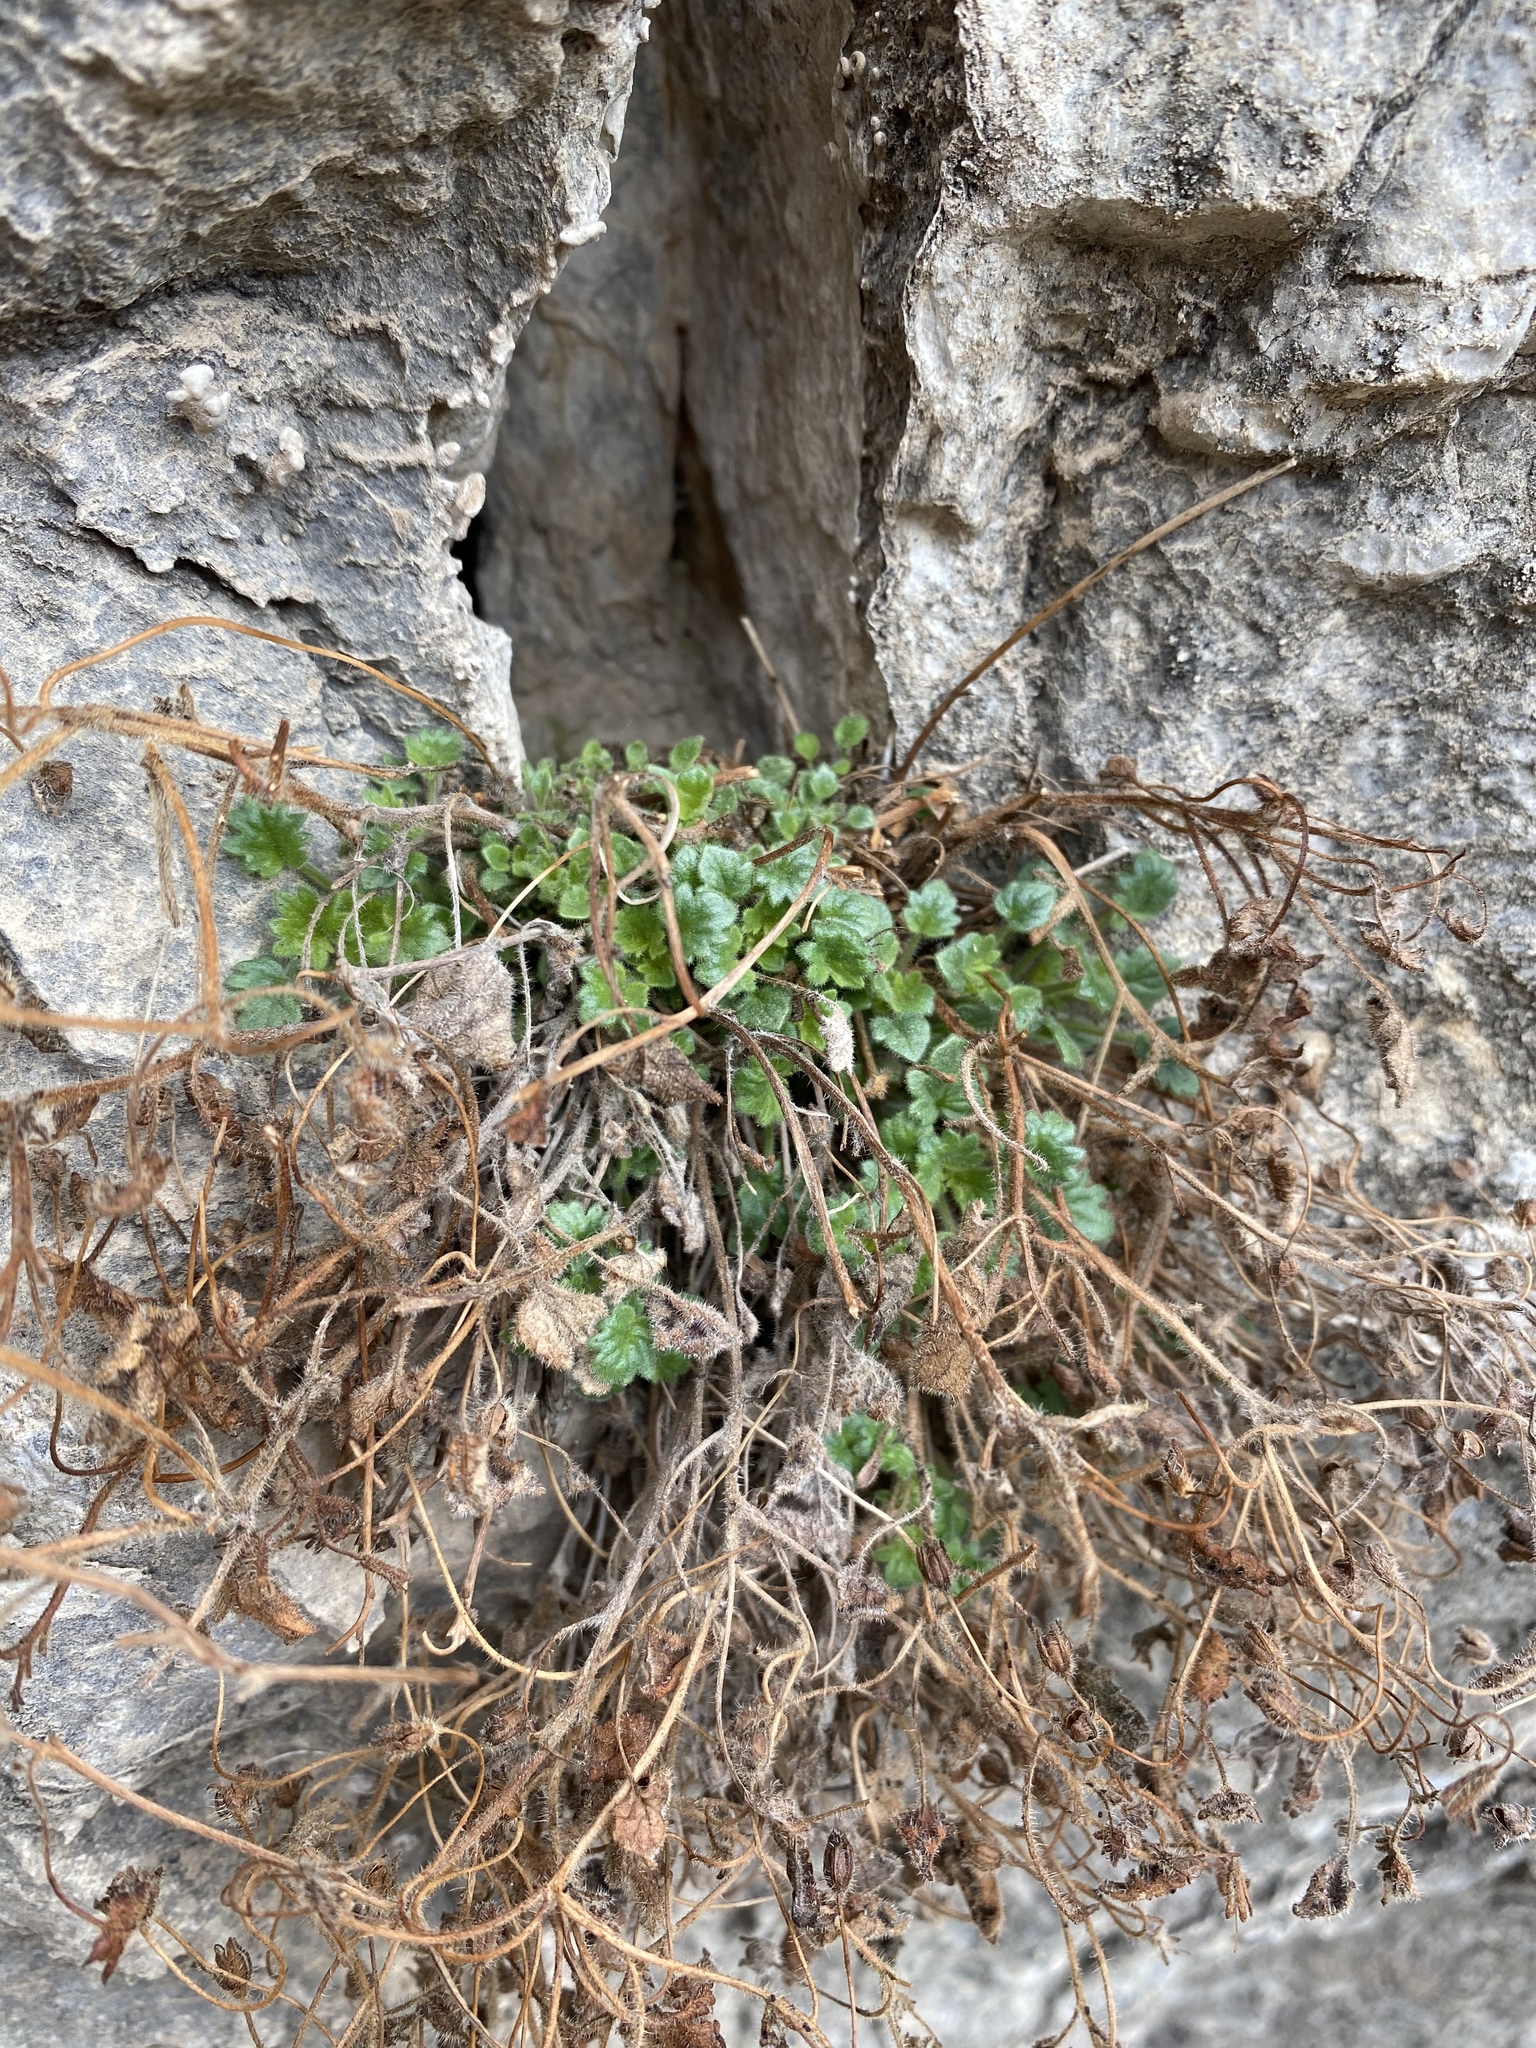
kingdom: Plantae
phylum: Tracheophyta
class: Magnoliopsida
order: Boraginales
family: Hydrophyllaceae
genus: Phacelia
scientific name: Phacelia geraniifolia
